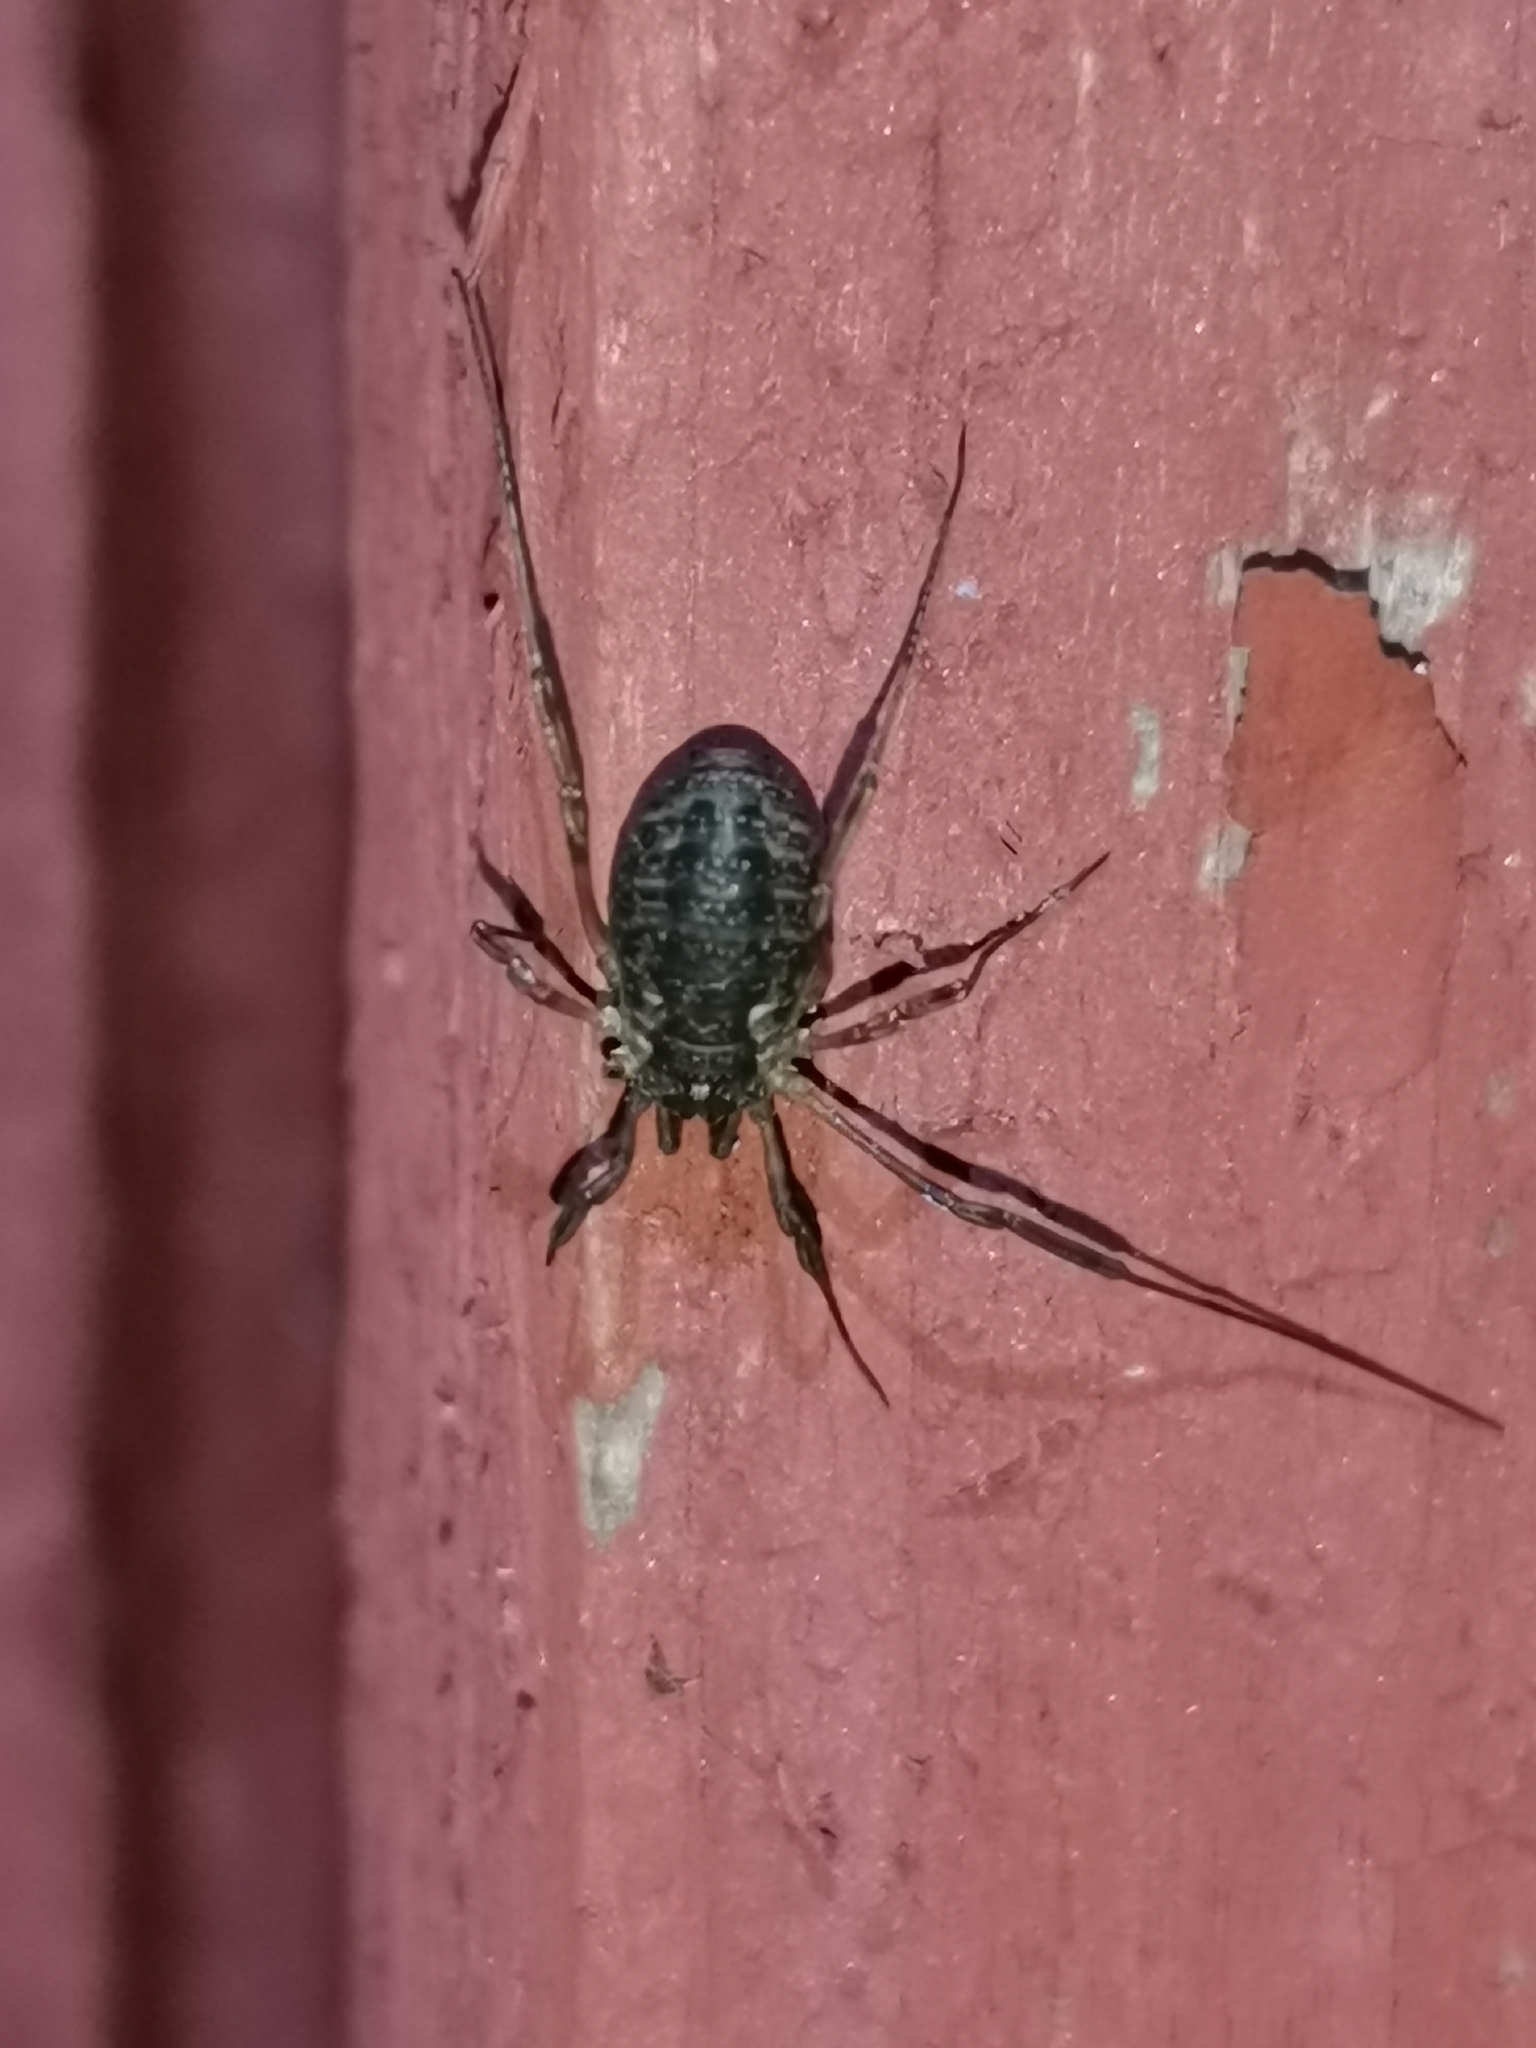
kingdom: Animalia
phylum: Arthropoda
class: Arachnida
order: Opiliones
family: Phalangiidae
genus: Oligolophus
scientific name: Oligolophus tridens
